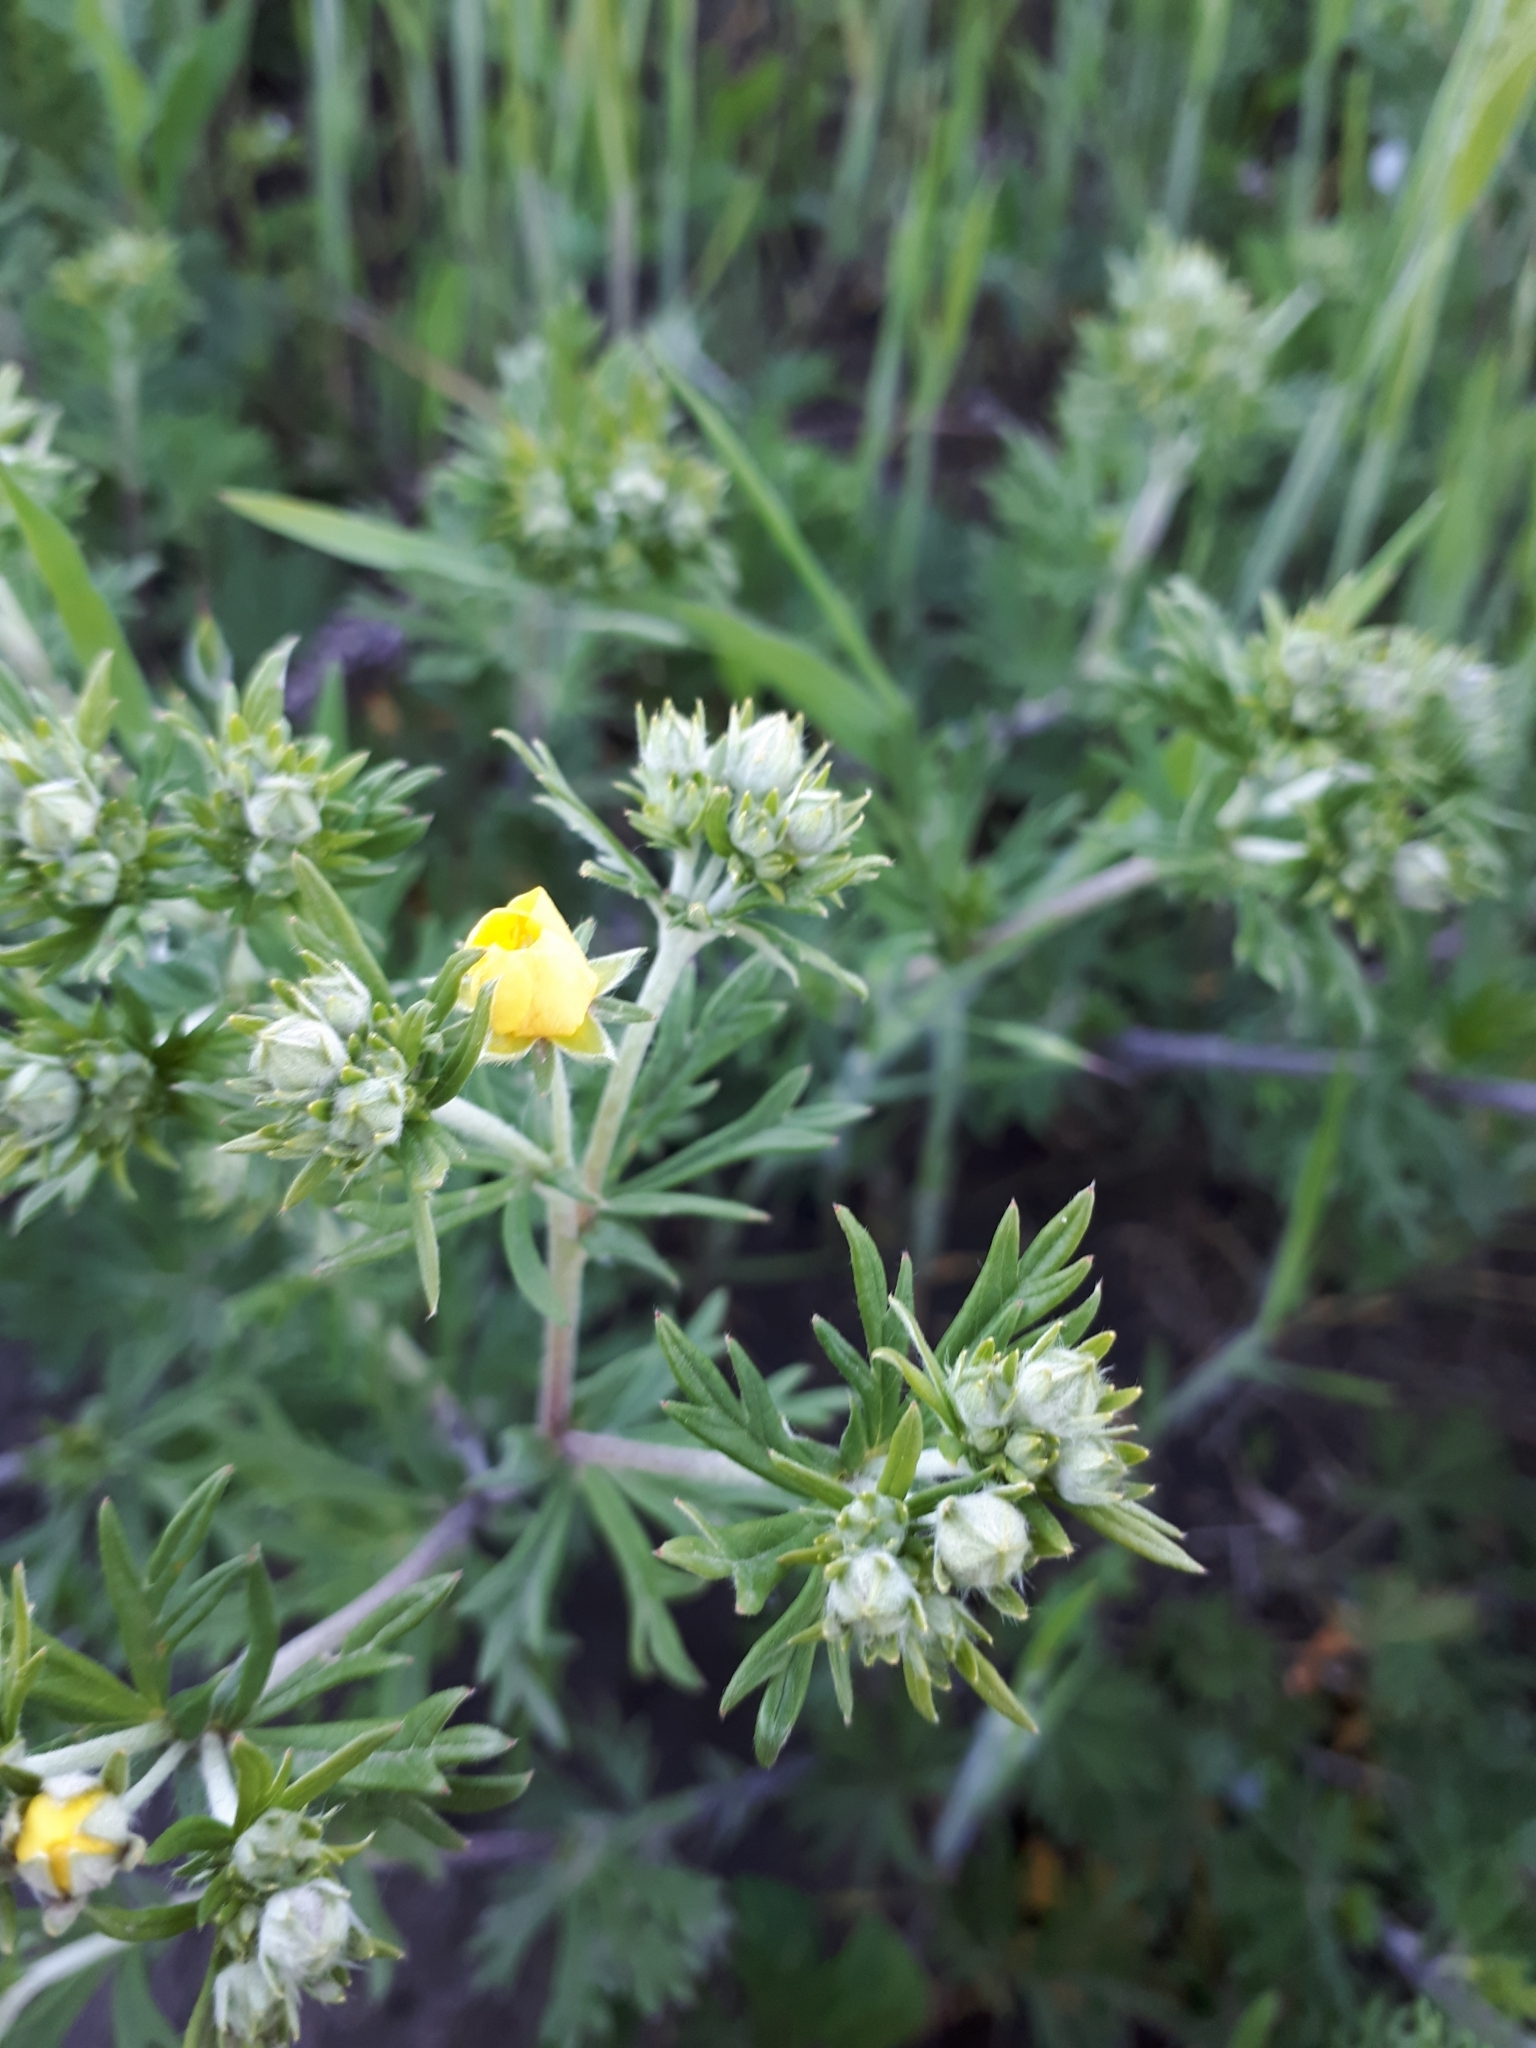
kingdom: Plantae
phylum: Tracheophyta
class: Magnoliopsida
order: Rosales
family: Rosaceae
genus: Potentilla
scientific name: Potentilla argentea
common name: Hoary cinquefoil
